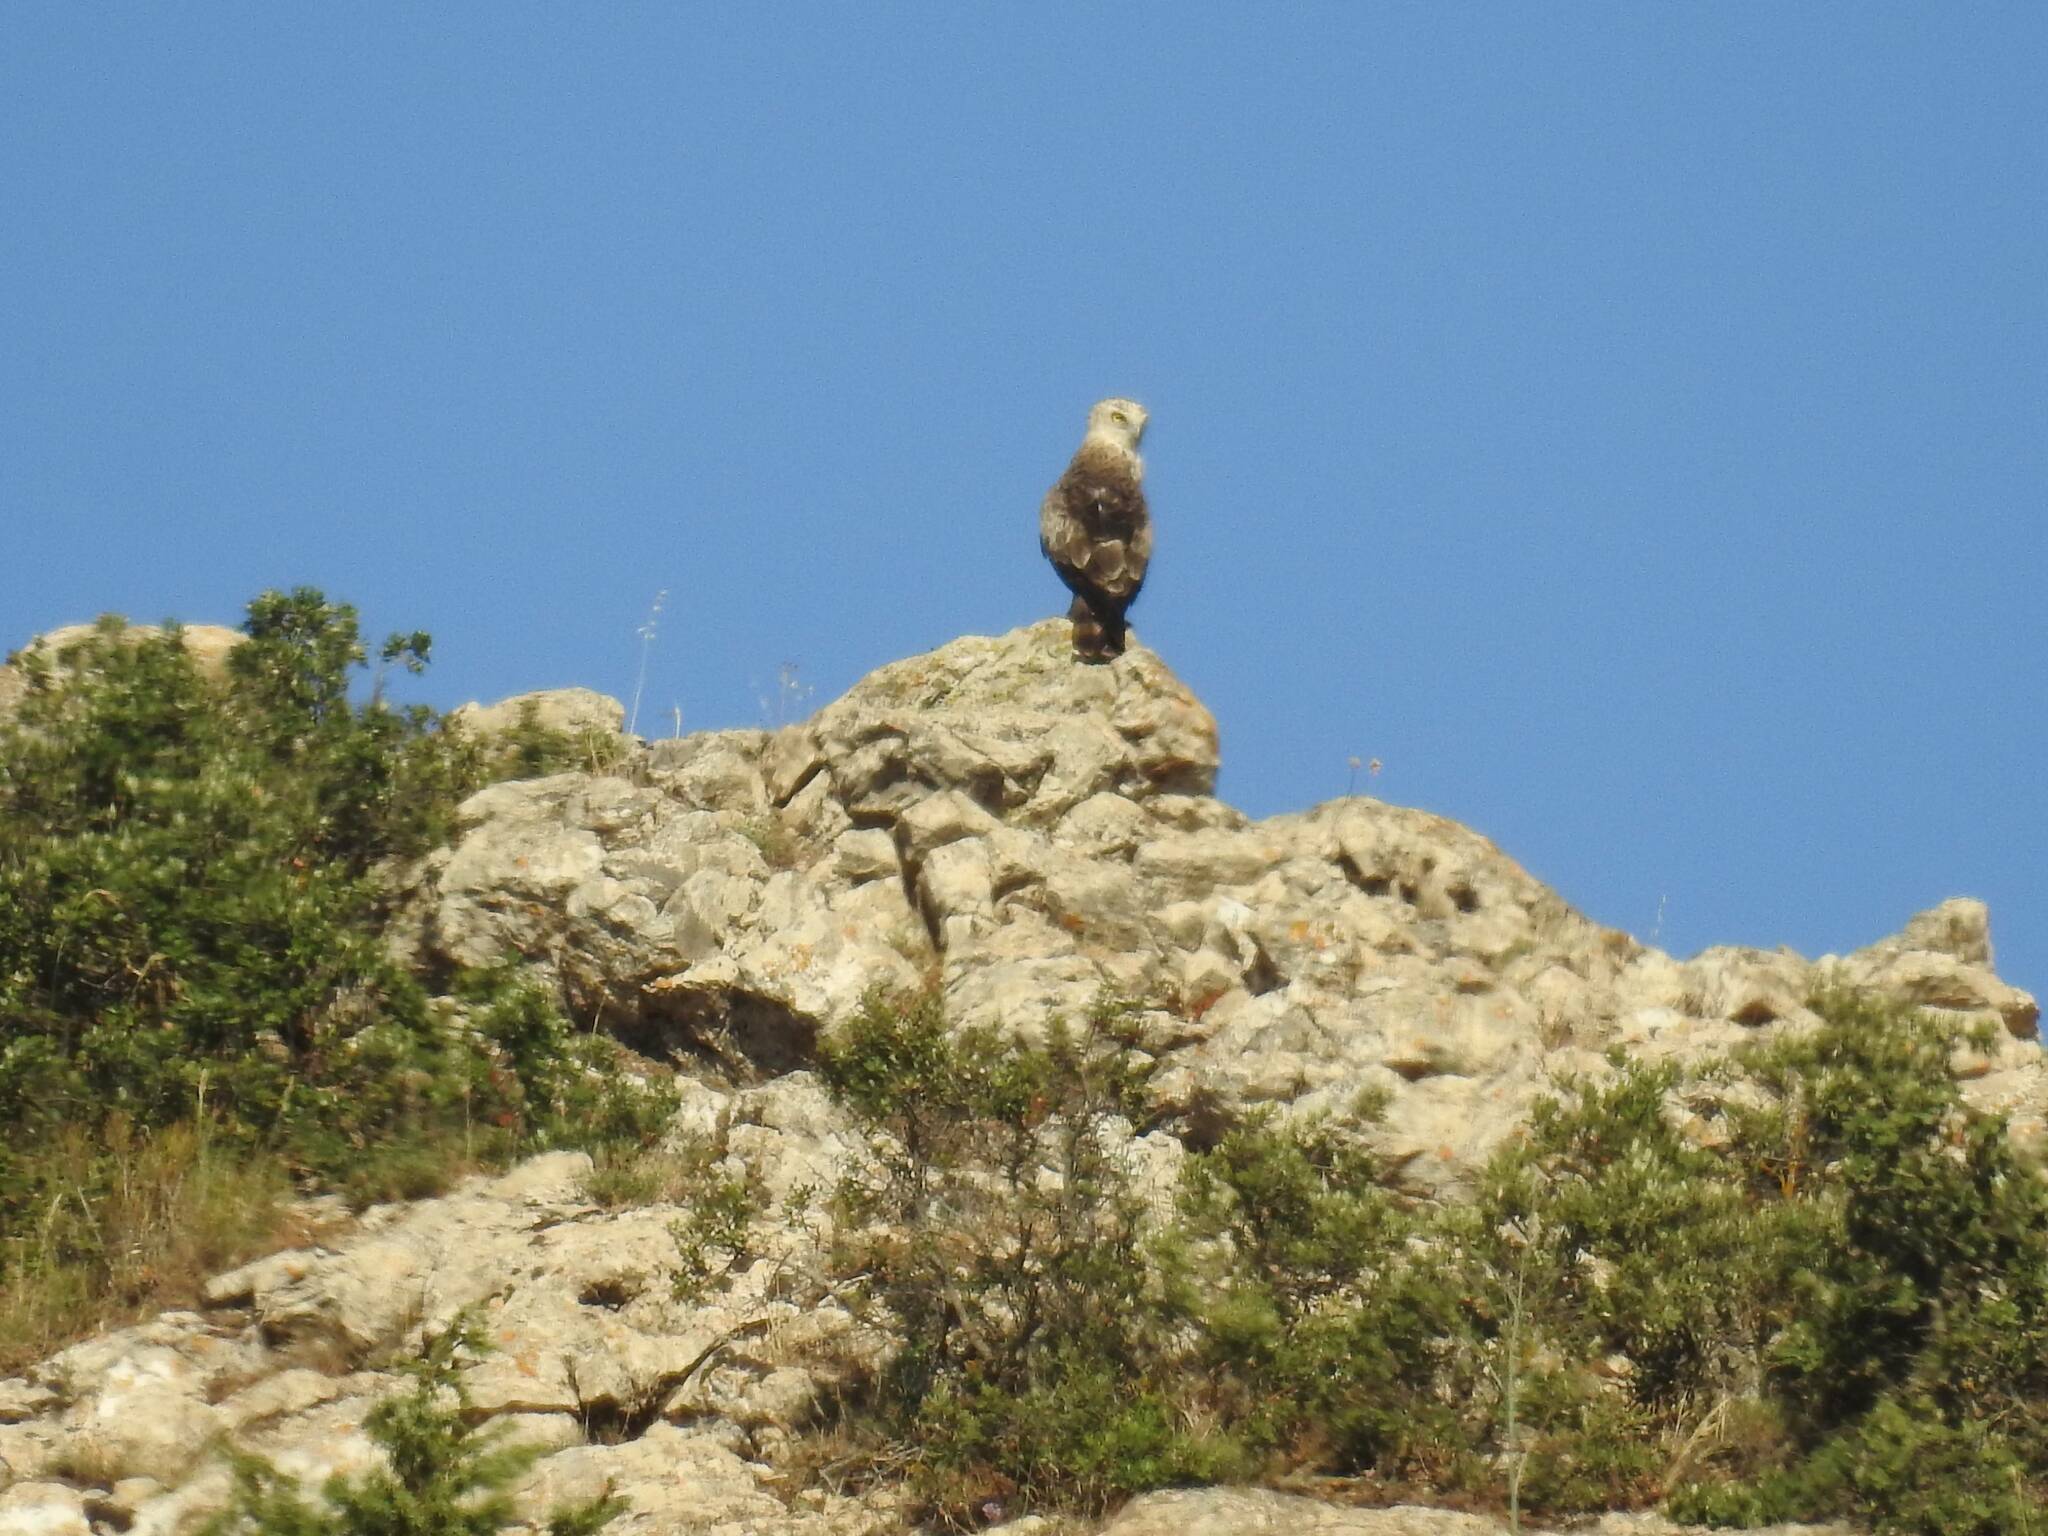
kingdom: Animalia
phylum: Chordata
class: Aves
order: Accipitriformes
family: Accipitridae
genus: Circaetus
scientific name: Circaetus gallicus
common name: Short-toed snake eagle
